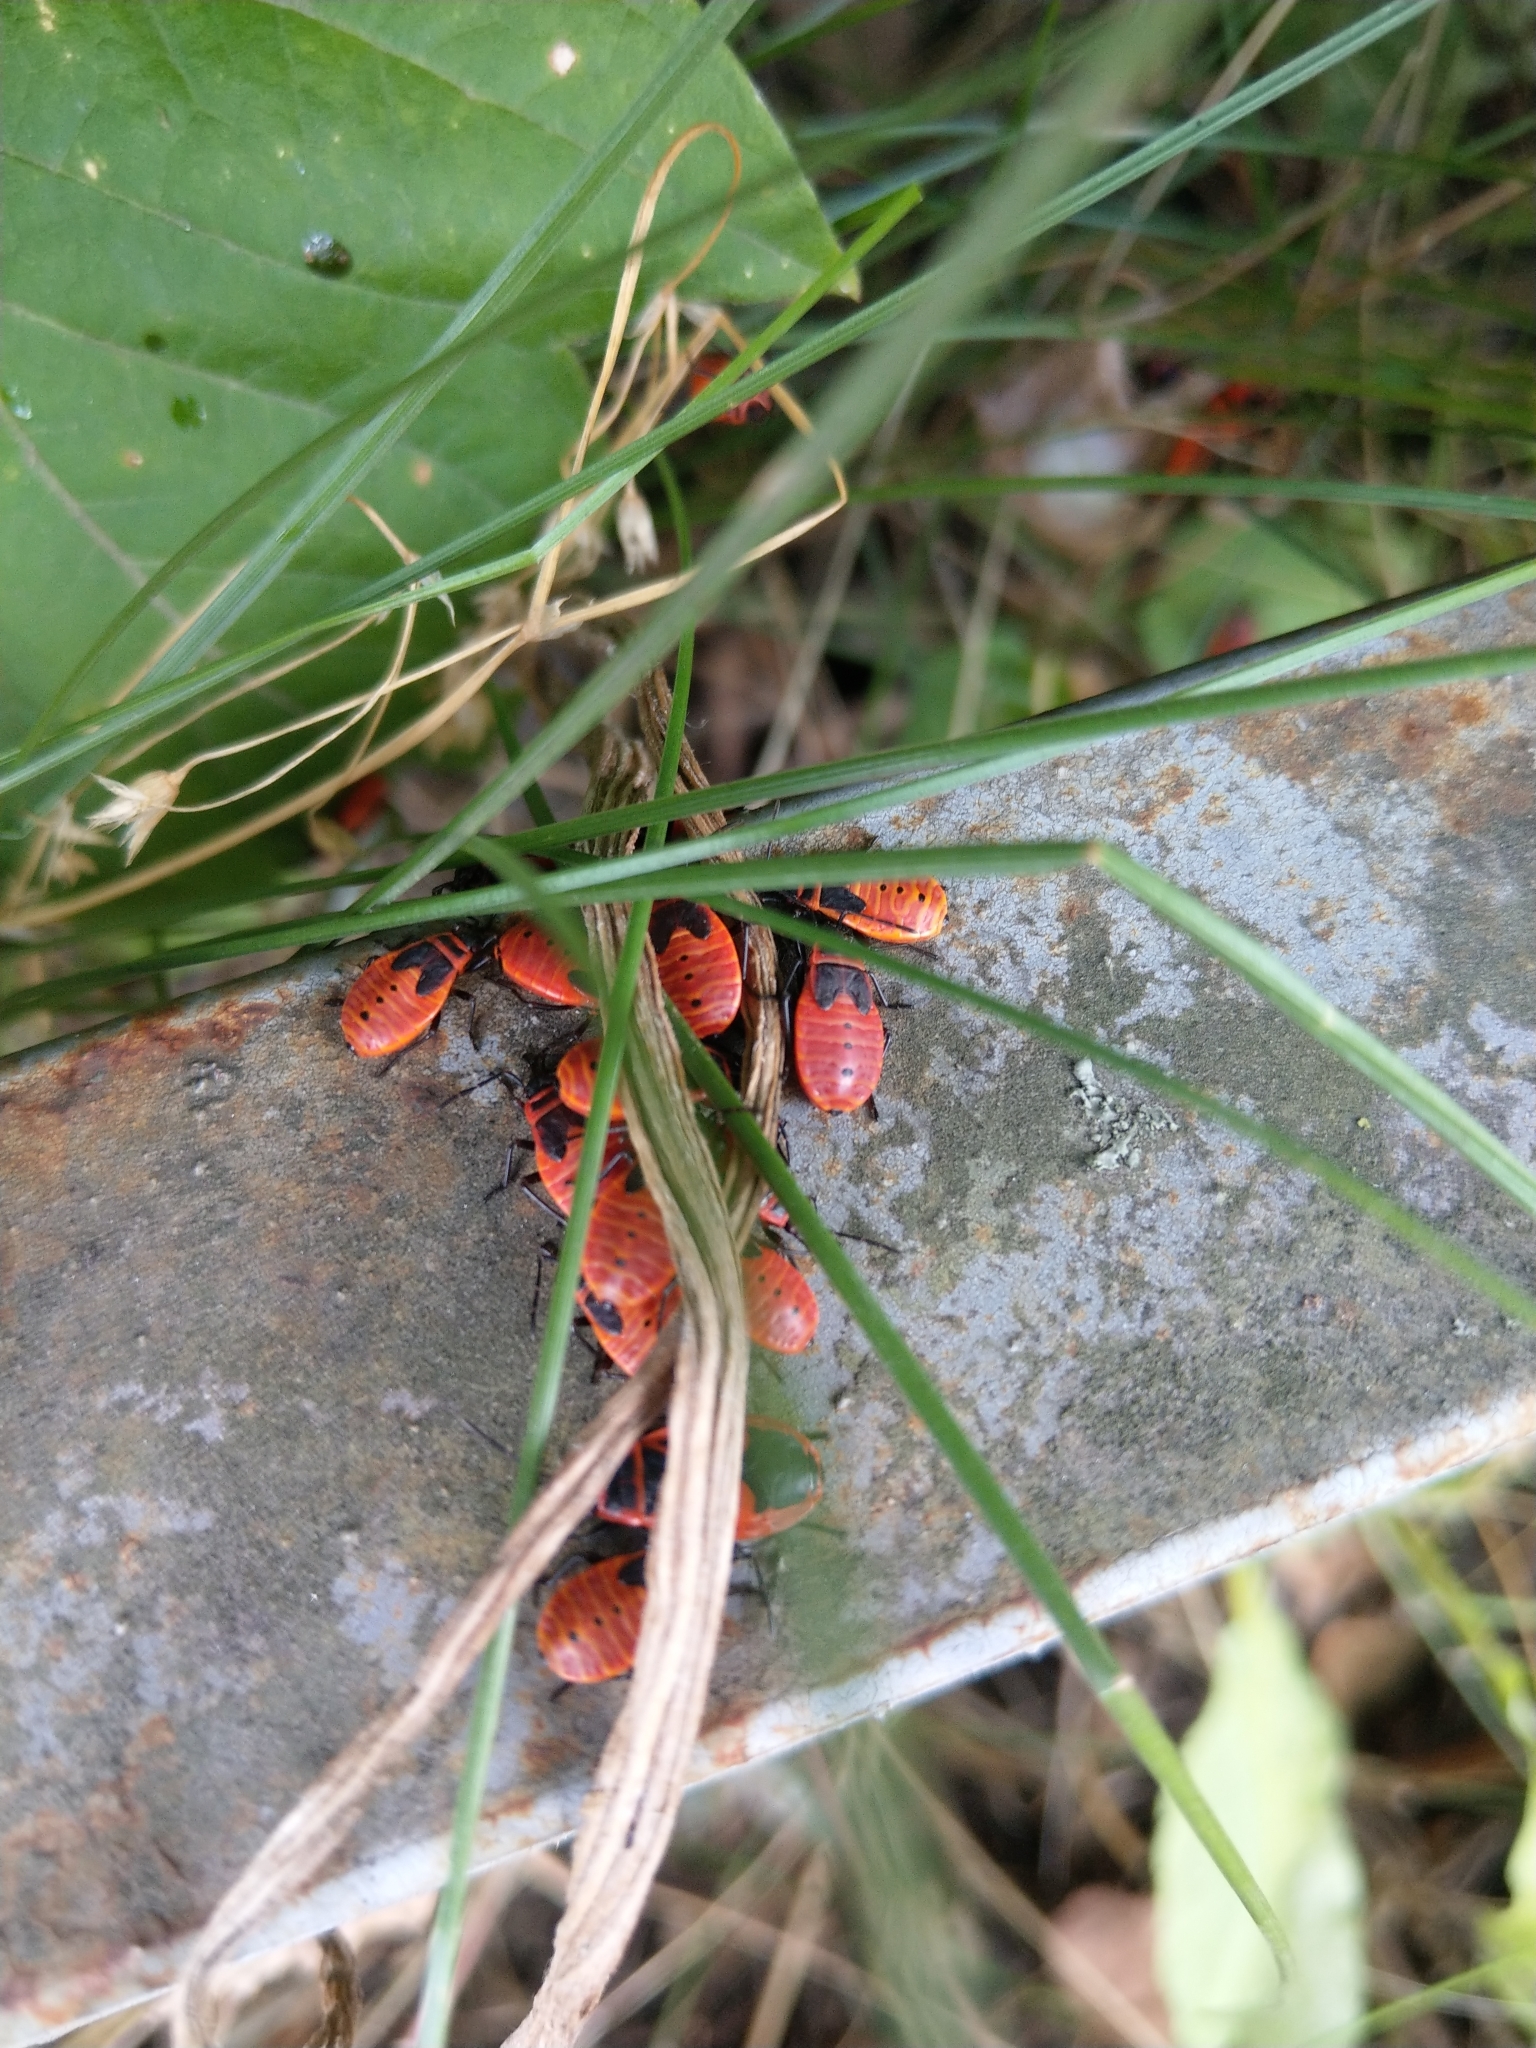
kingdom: Animalia
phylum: Arthropoda
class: Insecta
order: Hemiptera
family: Pyrrhocoridae
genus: Pyrrhocoris
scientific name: Pyrrhocoris apterus
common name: Firebug
